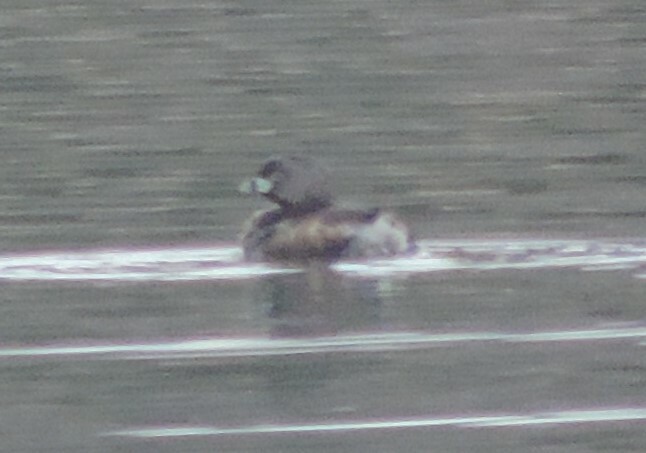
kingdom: Animalia
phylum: Chordata
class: Aves
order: Podicipediformes
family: Podicipedidae
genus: Podilymbus
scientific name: Podilymbus podiceps
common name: Pied-billed grebe
